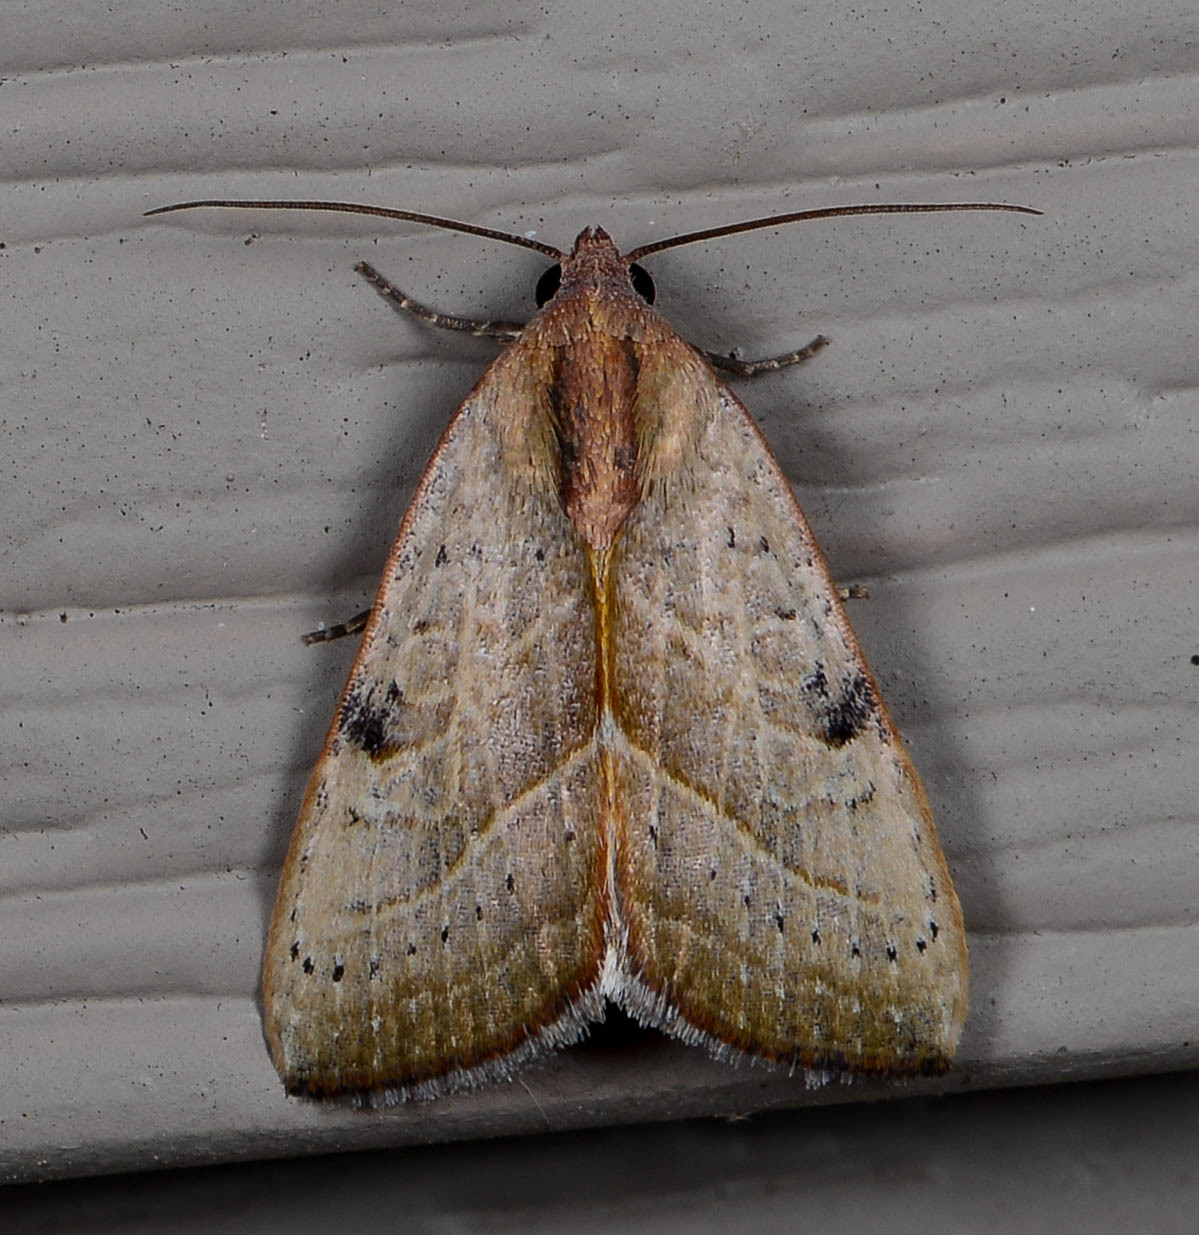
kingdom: Animalia
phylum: Arthropoda
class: Insecta
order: Lepidoptera
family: Noctuidae
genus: Galgula
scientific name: Galgula partita
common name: Wedgeling
